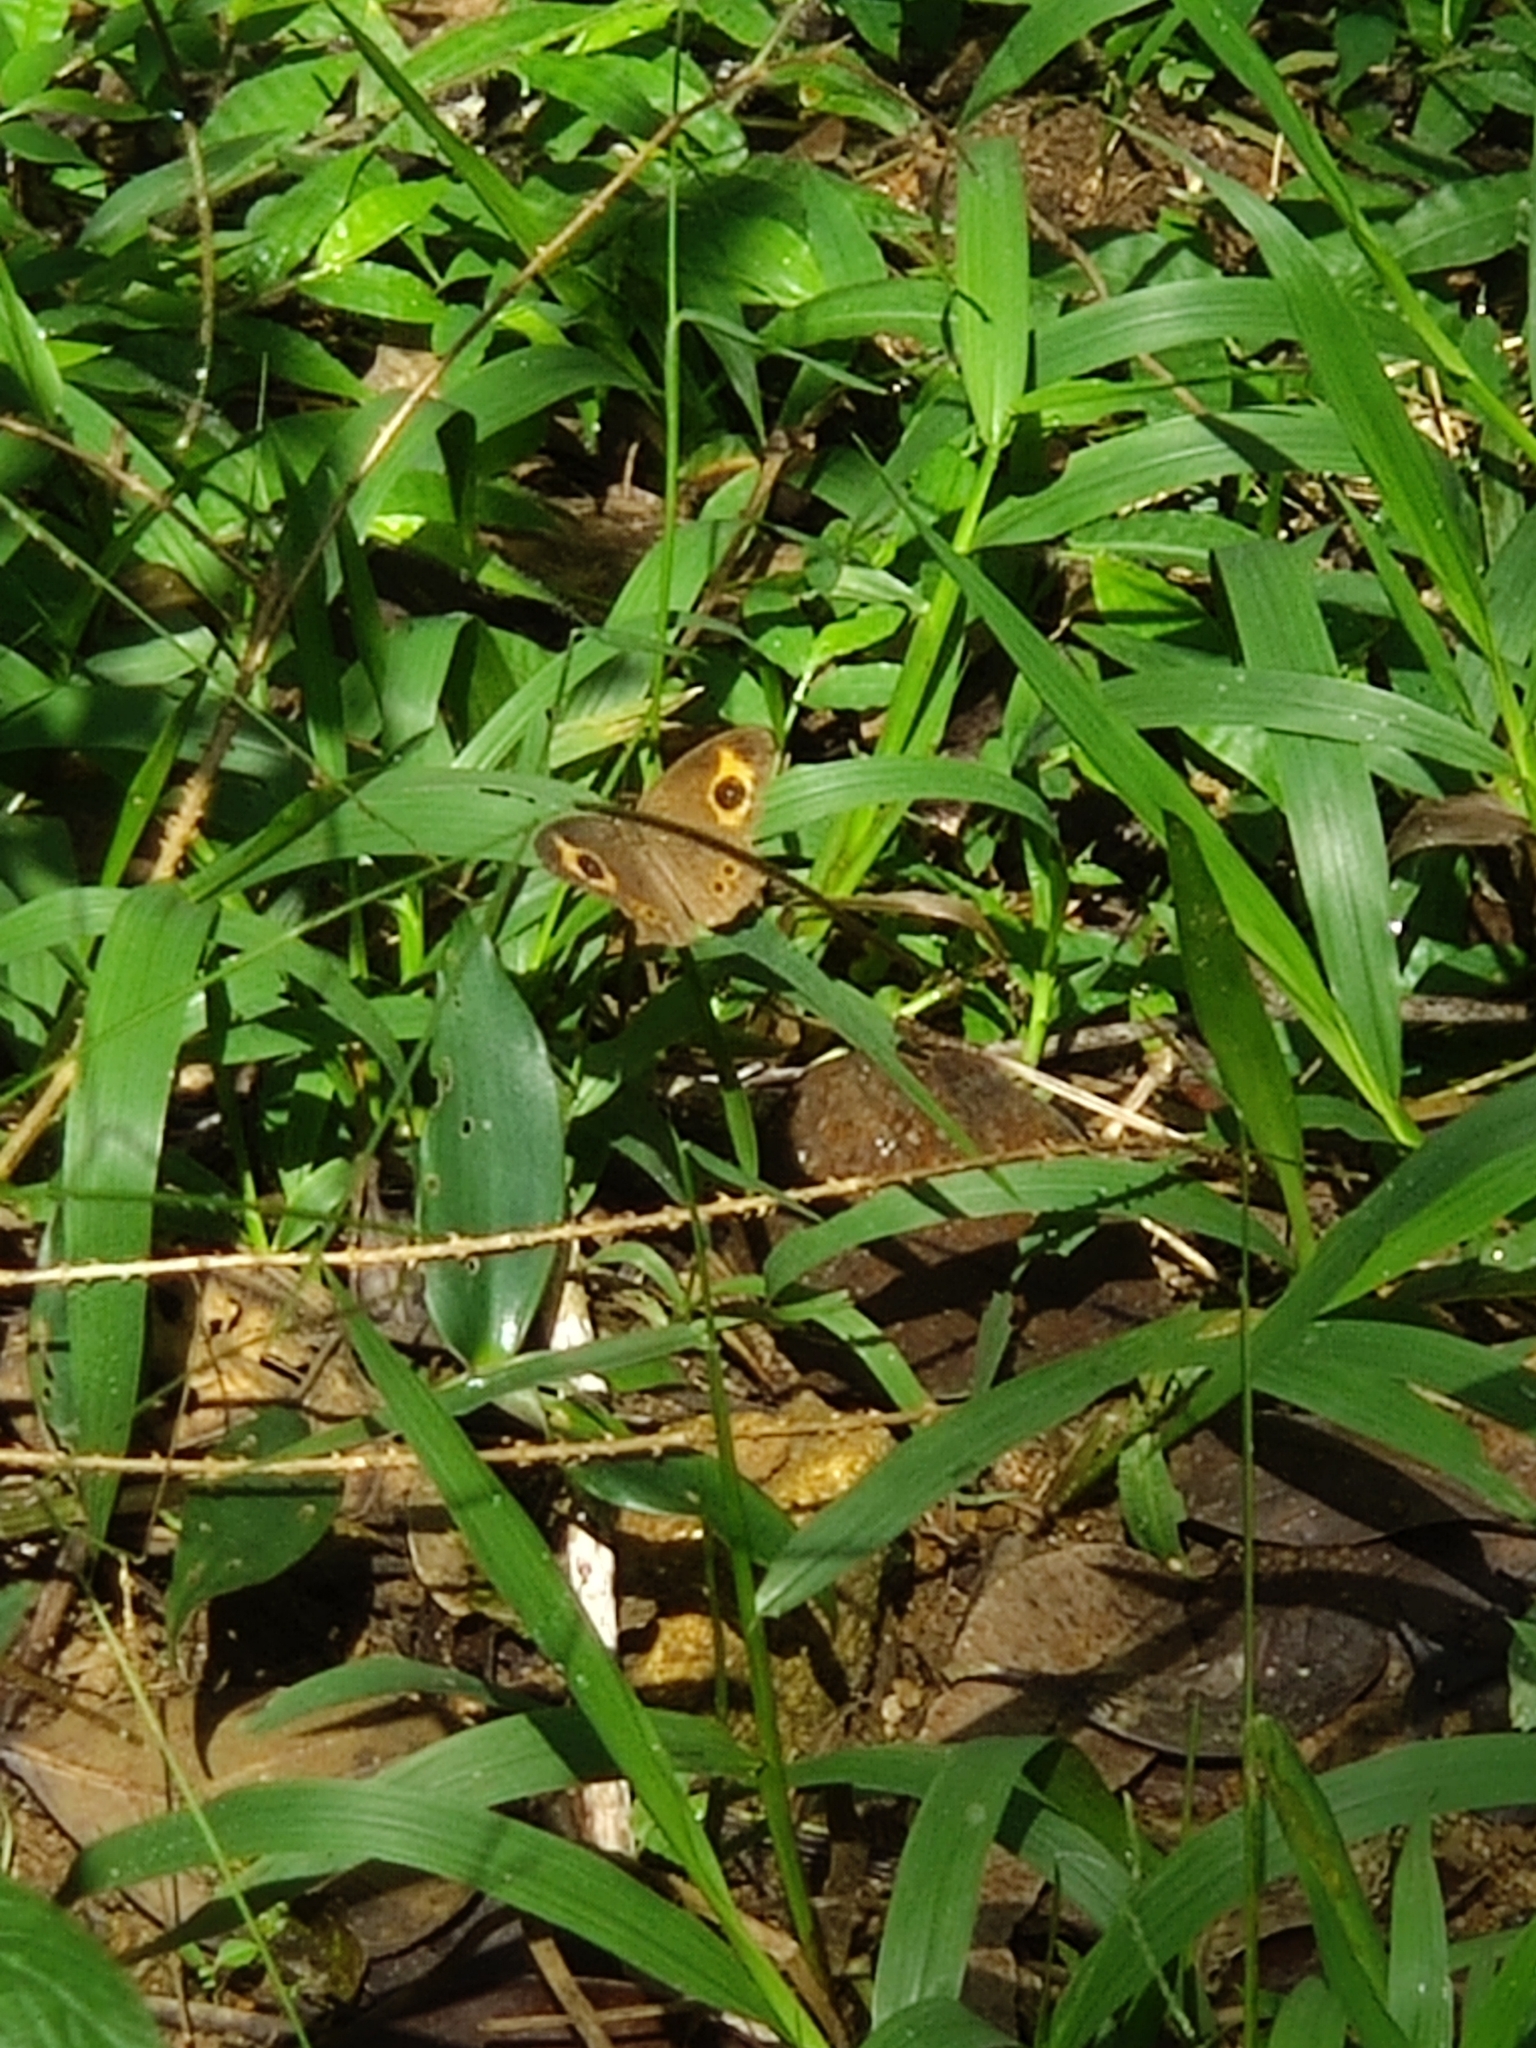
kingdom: Animalia
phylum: Arthropoda
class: Insecta
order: Lepidoptera
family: Nymphalidae
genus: Mycalesis
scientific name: Mycalesis Telinga oculus
